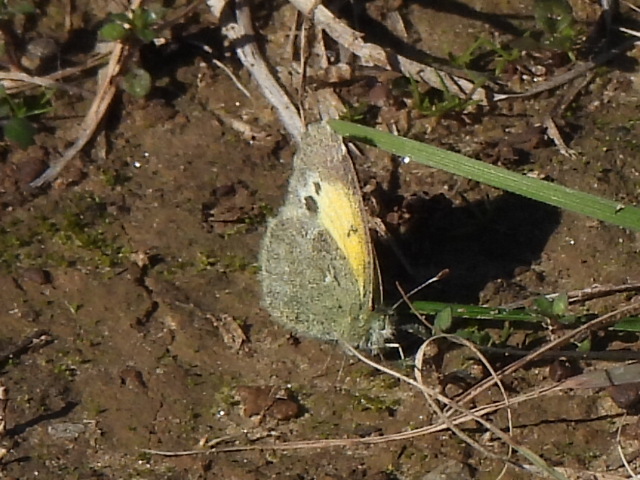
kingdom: Animalia
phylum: Arthropoda
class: Insecta
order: Lepidoptera
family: Pieridae
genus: Nathalis
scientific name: Nathalis iole
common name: Dainty sulphur
